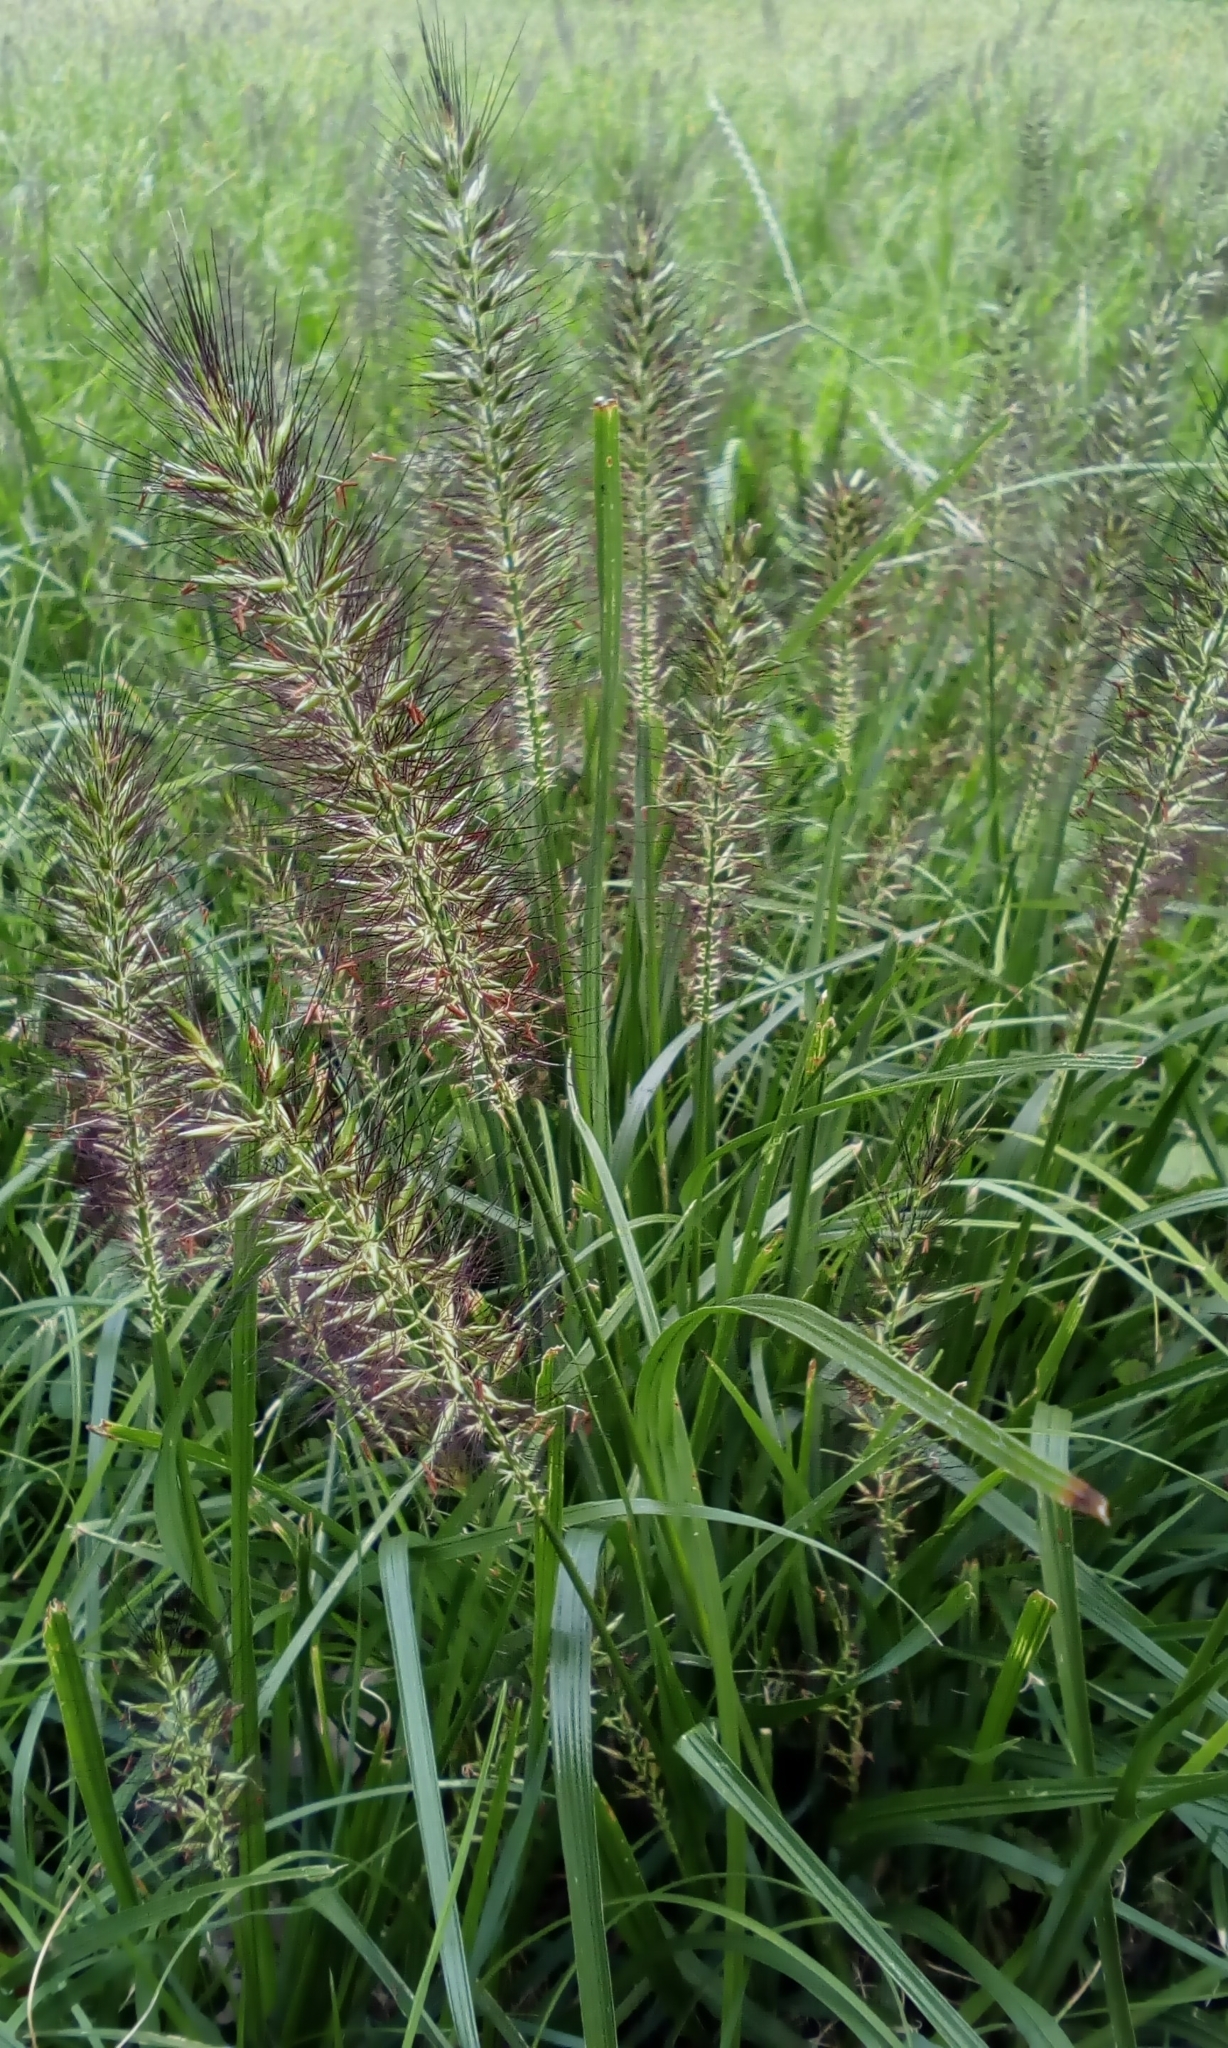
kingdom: Plantae
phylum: Tracheophyta
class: Liliopsida
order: Poales
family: Poaceae
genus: Cenchrus
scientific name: Cenchrus alopecuroides
